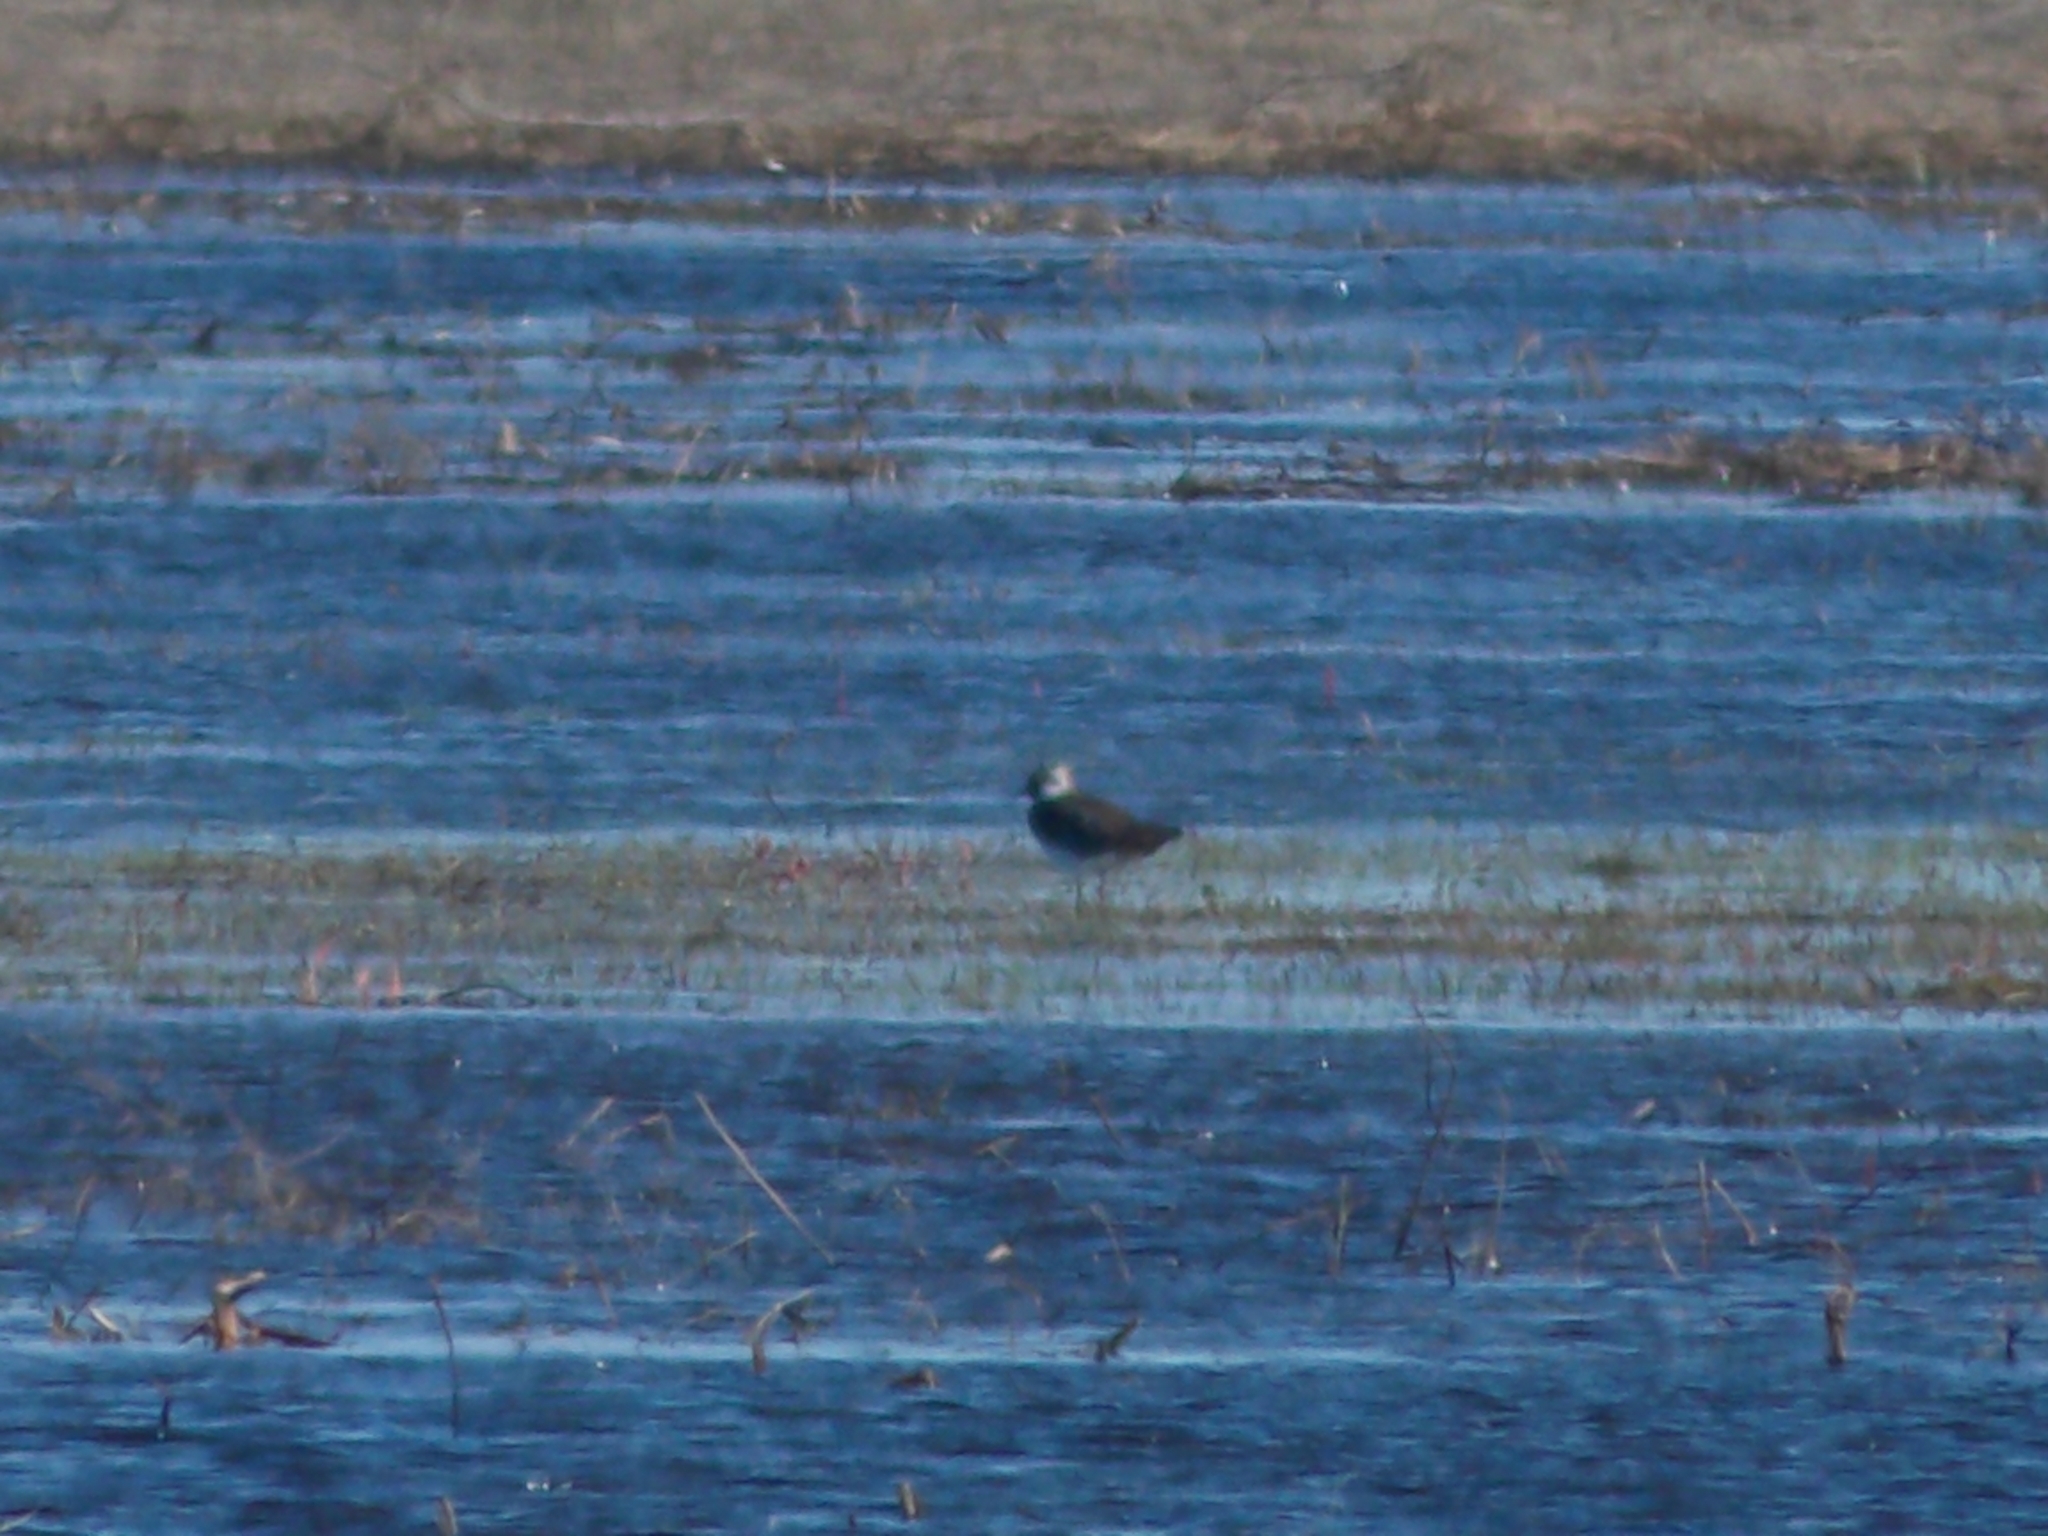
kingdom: Animalia
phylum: Chordata
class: Aves
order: Charadriiformes
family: Charadriidae
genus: Vanellus
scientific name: Vanellus vanellus
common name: Northern lapwing
